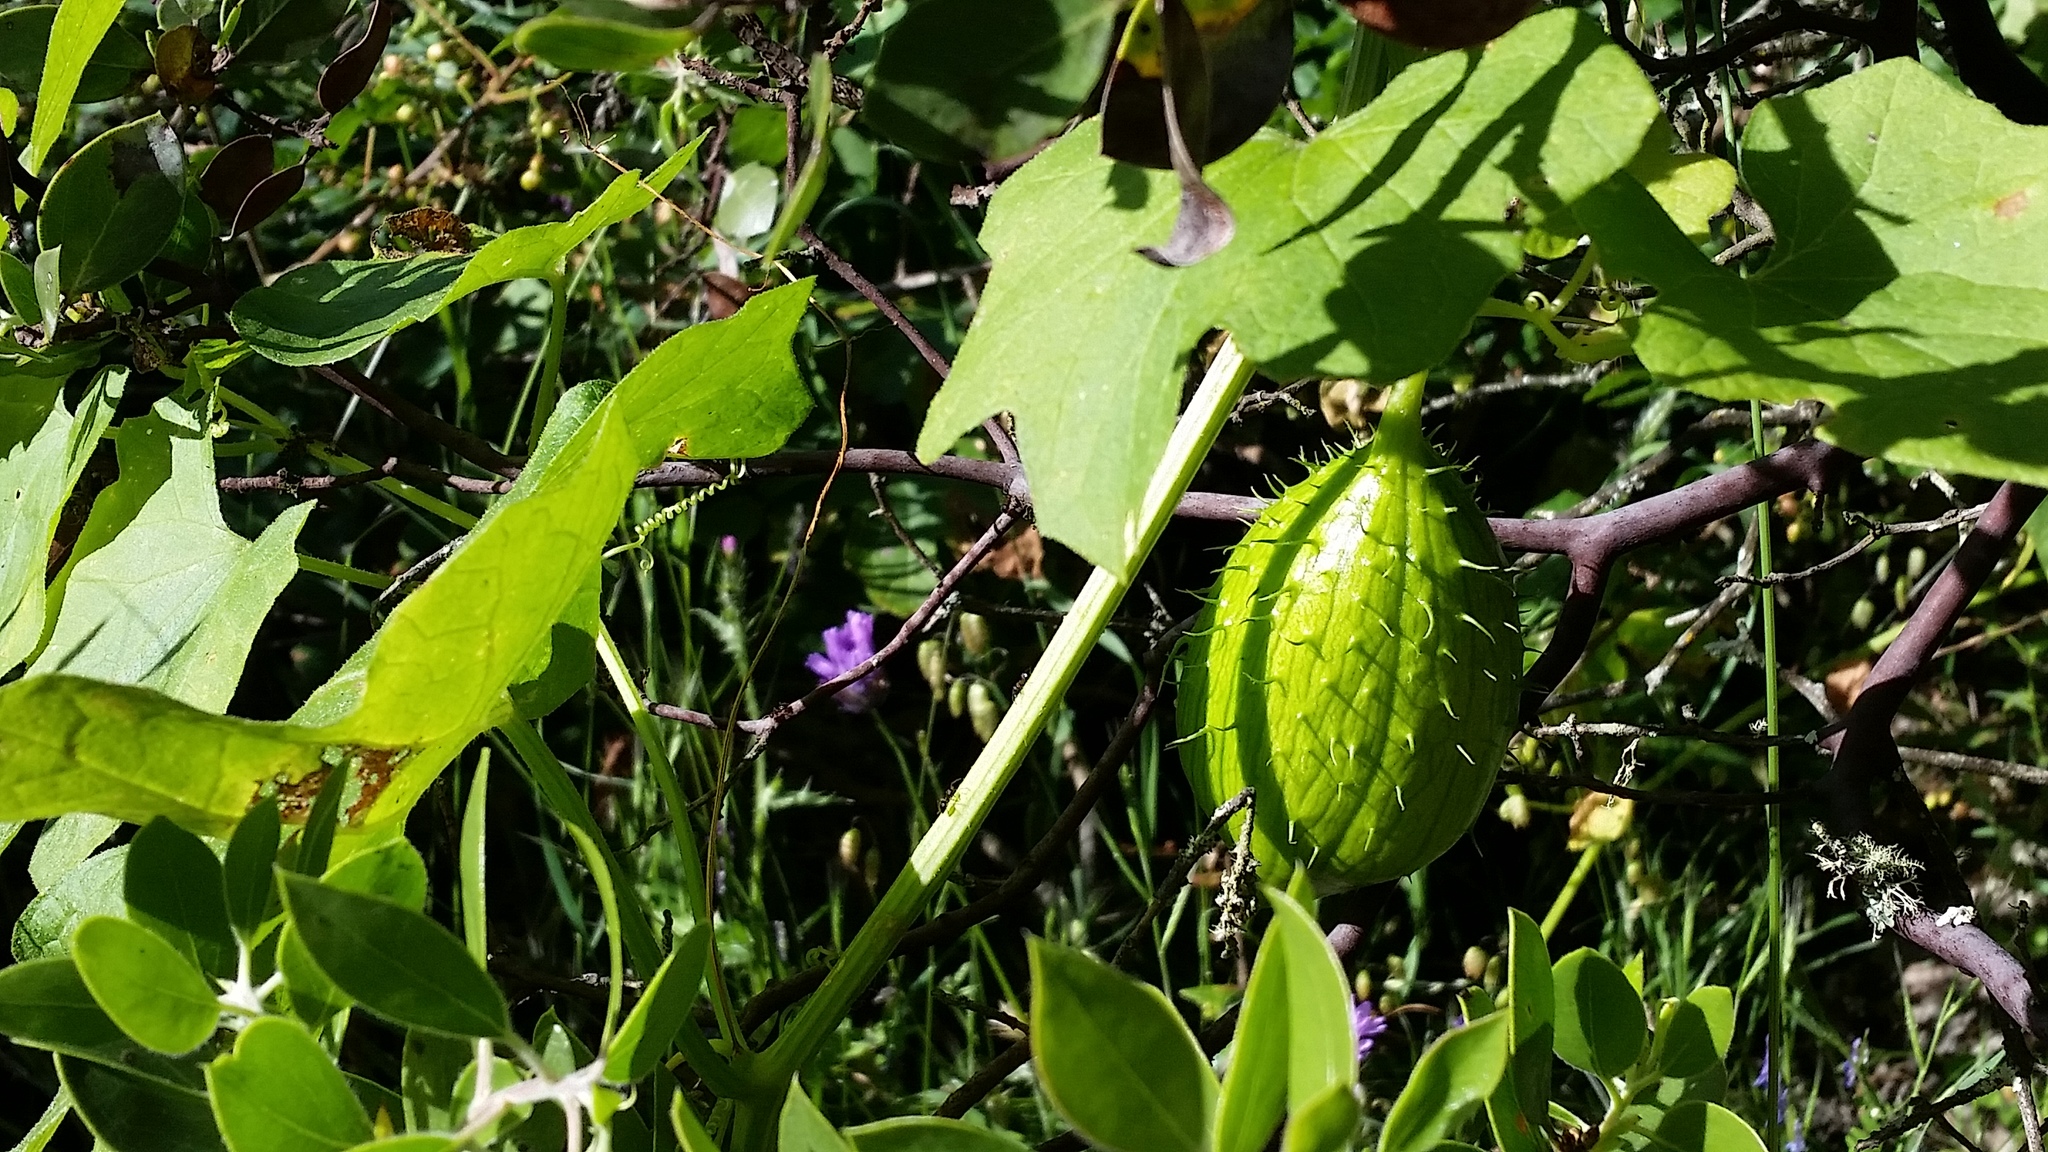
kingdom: Plantae
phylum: Tracheophyta
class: Magnoliopsida
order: Cucurbitales
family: Cucurbitaceae
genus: Marah
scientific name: Marah oregana
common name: Coastal manroot
